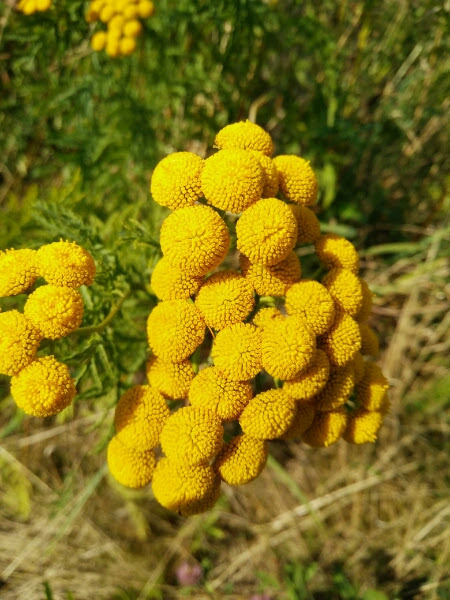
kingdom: Plantae
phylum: Tracheophyta
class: Magnoliopsida
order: Asterales
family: Asteraceae
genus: Tanacetum
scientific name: Tanacetum vulgare
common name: Common tansy
